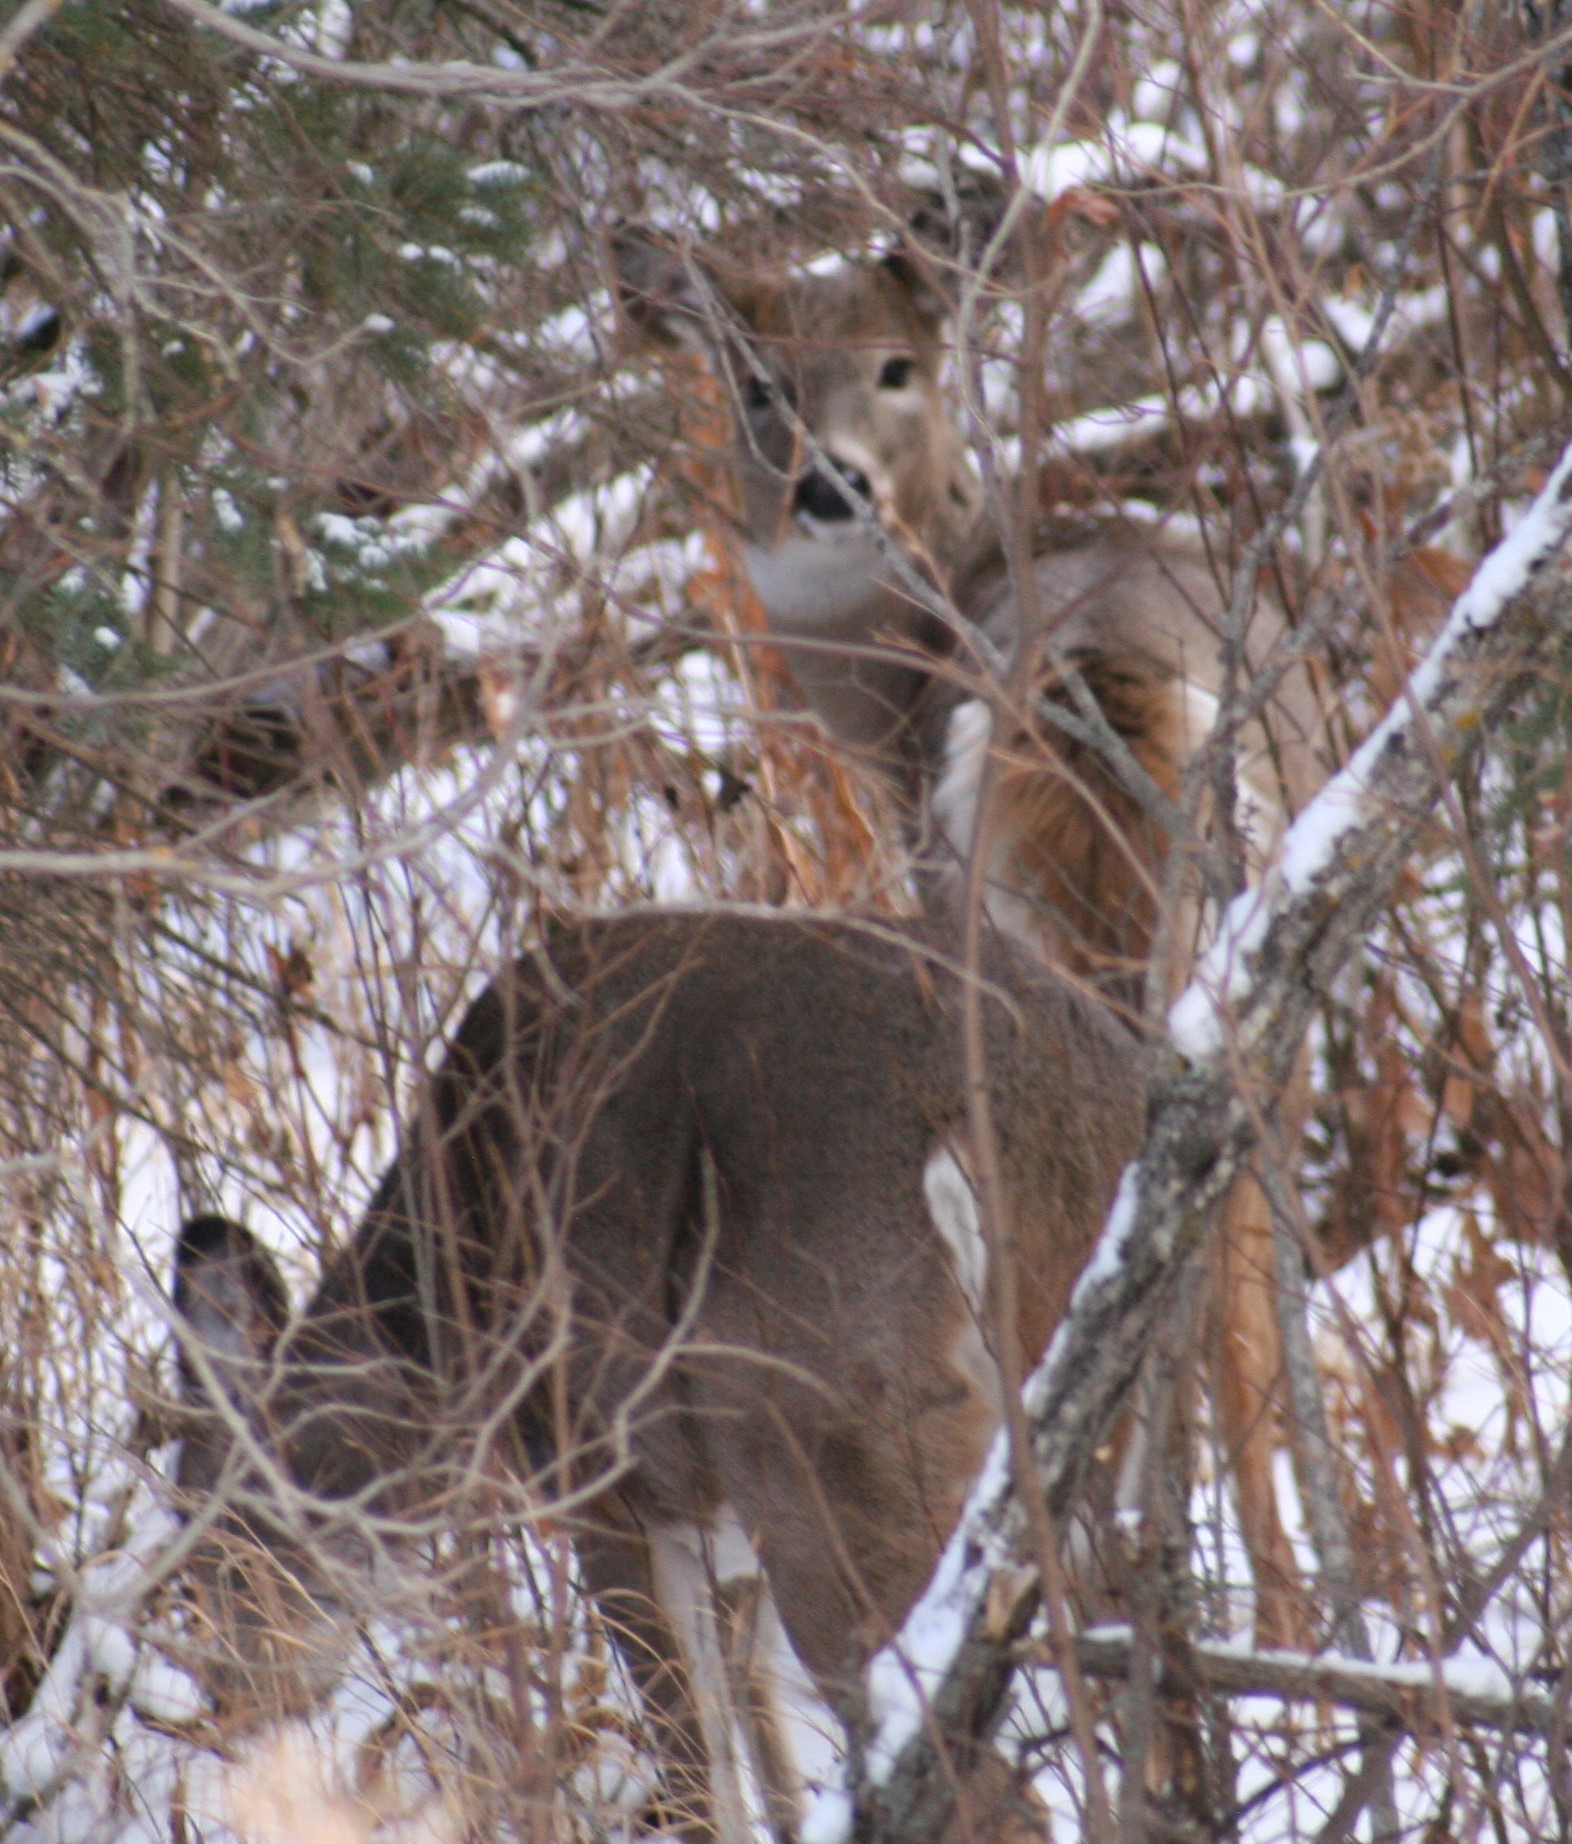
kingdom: Animalia
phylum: Chordata
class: Mammalia
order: Artiodactyla
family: Cervidae
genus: Odocoileus
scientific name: Odocoileus virginianus
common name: White-tailed deer
